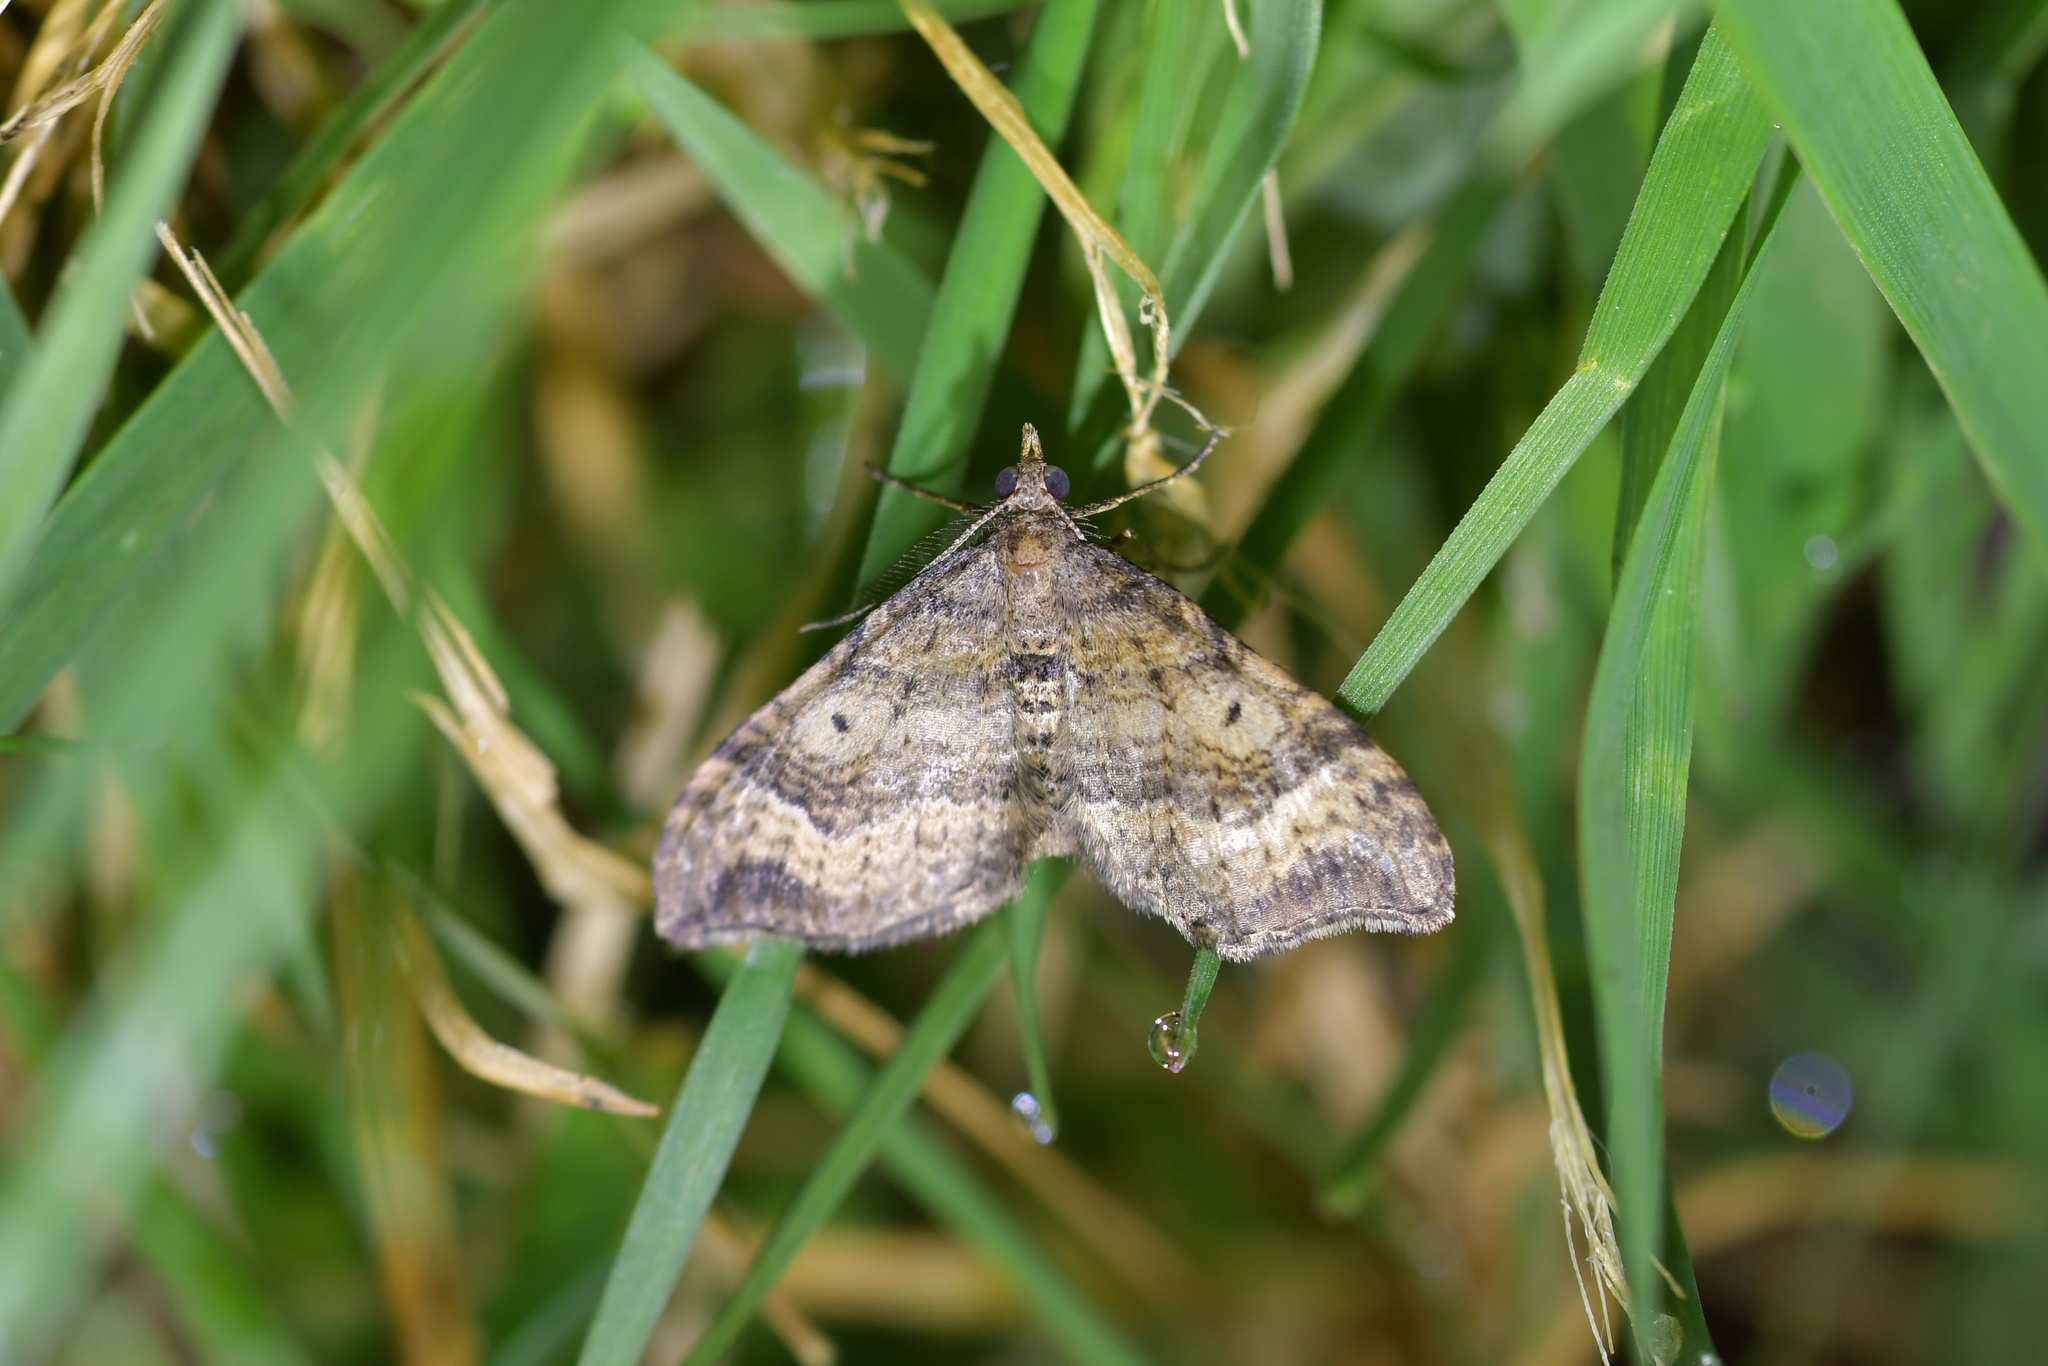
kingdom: Animalia
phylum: Arthropoda
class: Insecta
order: Lepidoptera
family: Geometridae
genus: Homodotis
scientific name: Homodotis megaspilata
